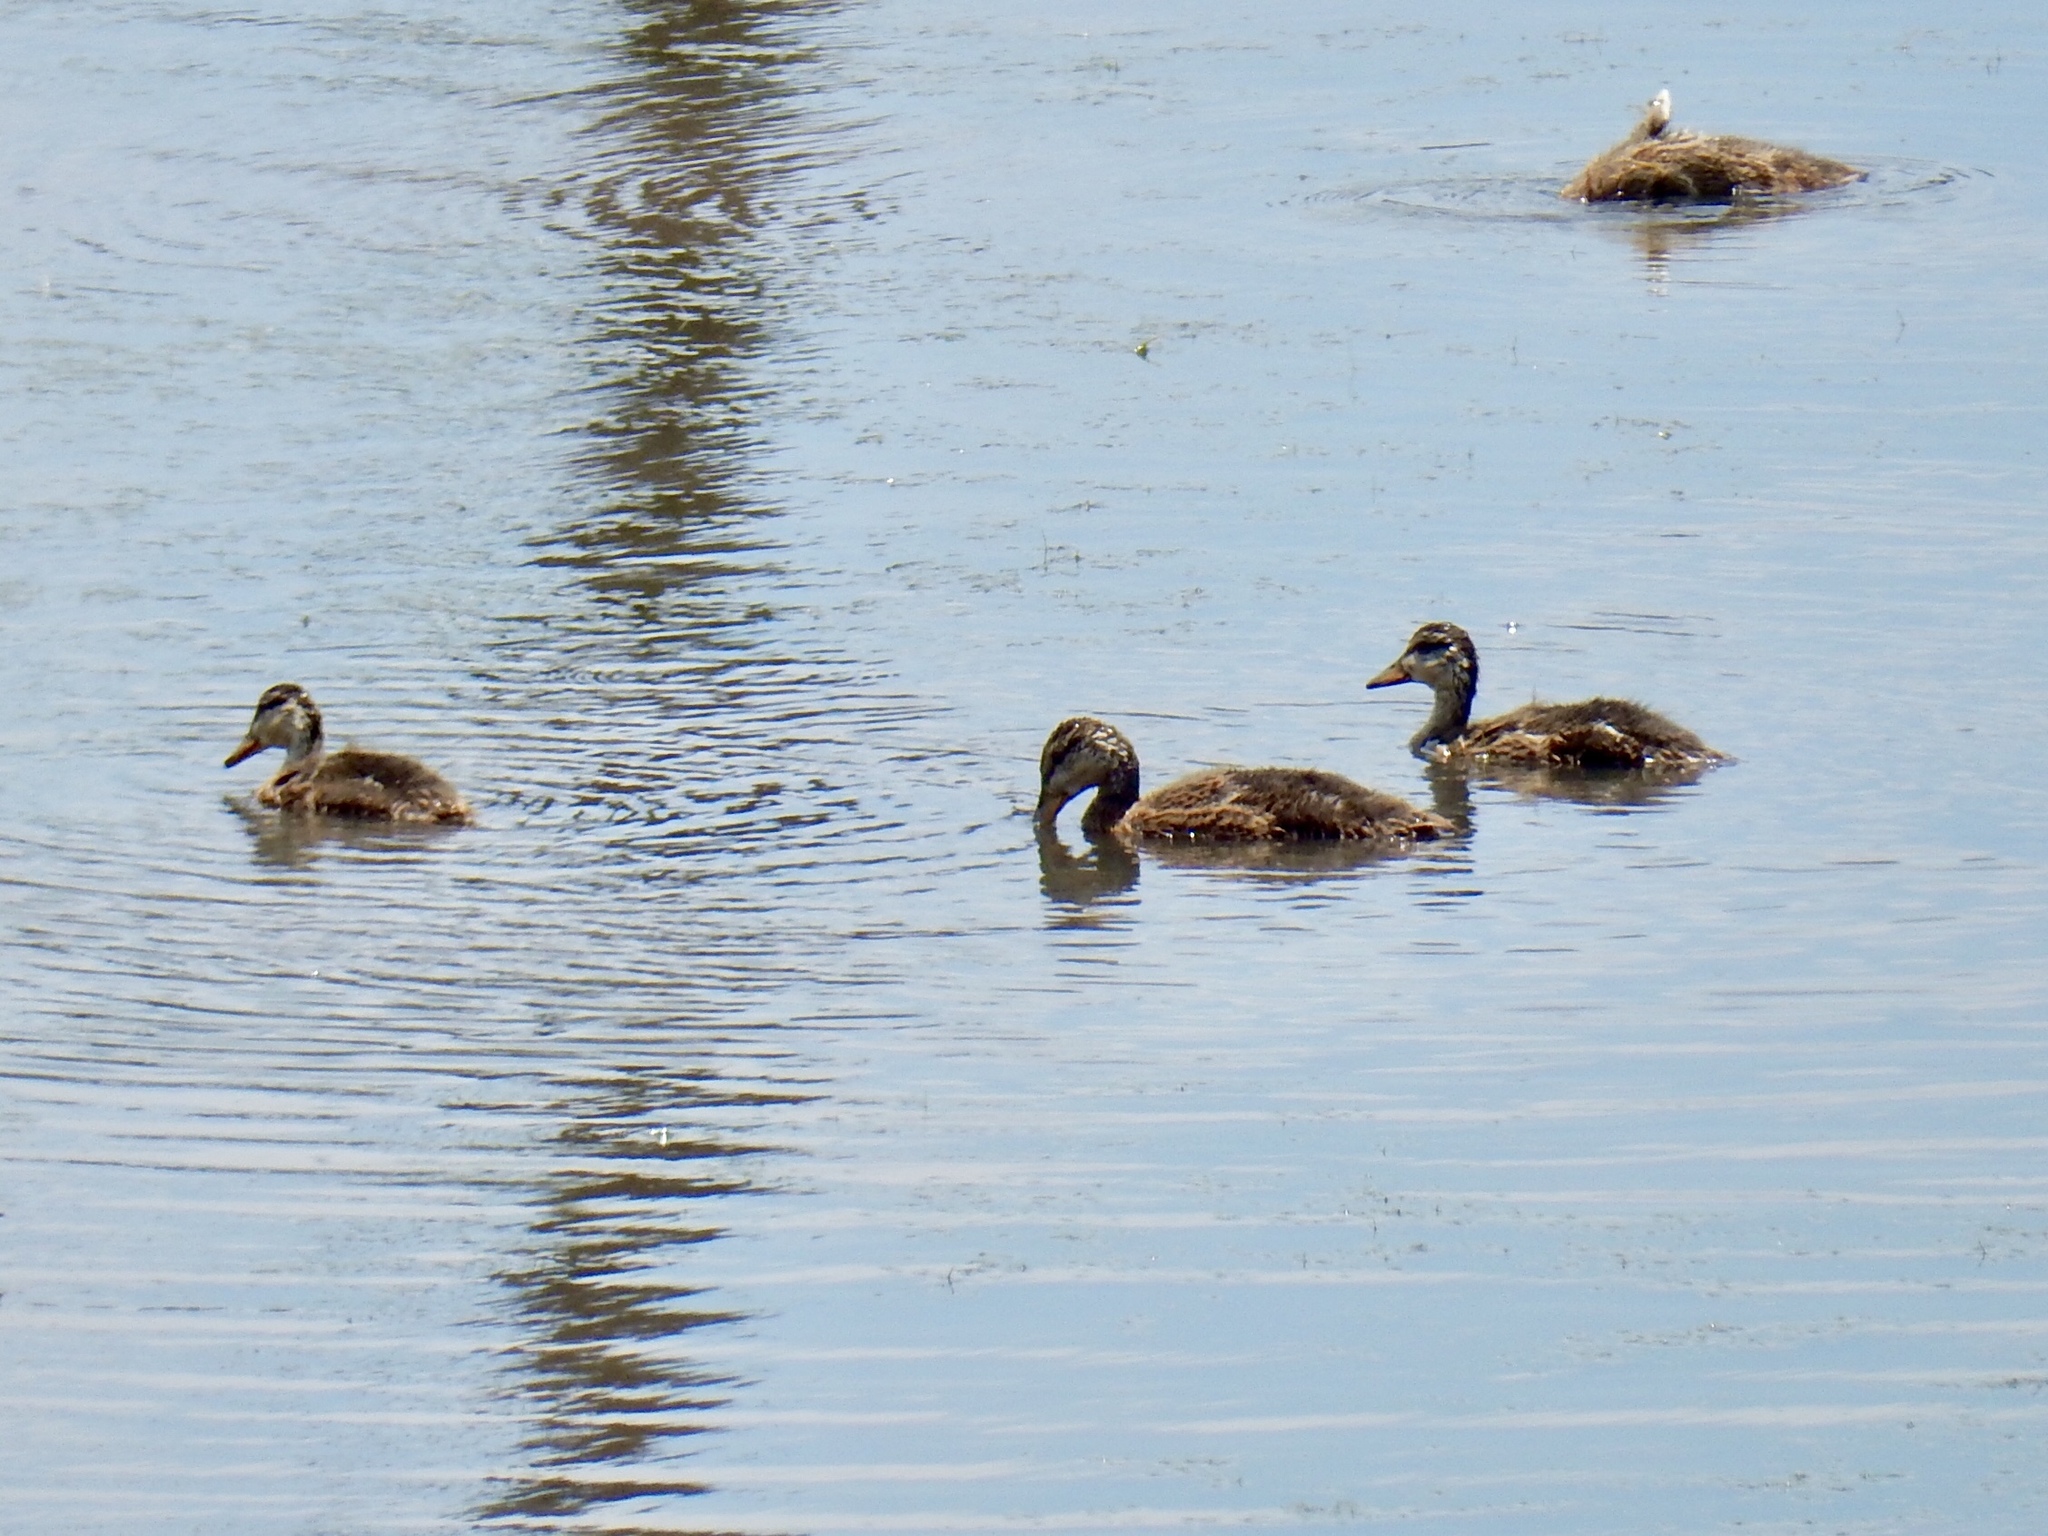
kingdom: Animalia
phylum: Chordata
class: Aves
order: Anseriformes
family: Anatidae
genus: Anas
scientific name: Anas platyrhynchos
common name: Mallard
